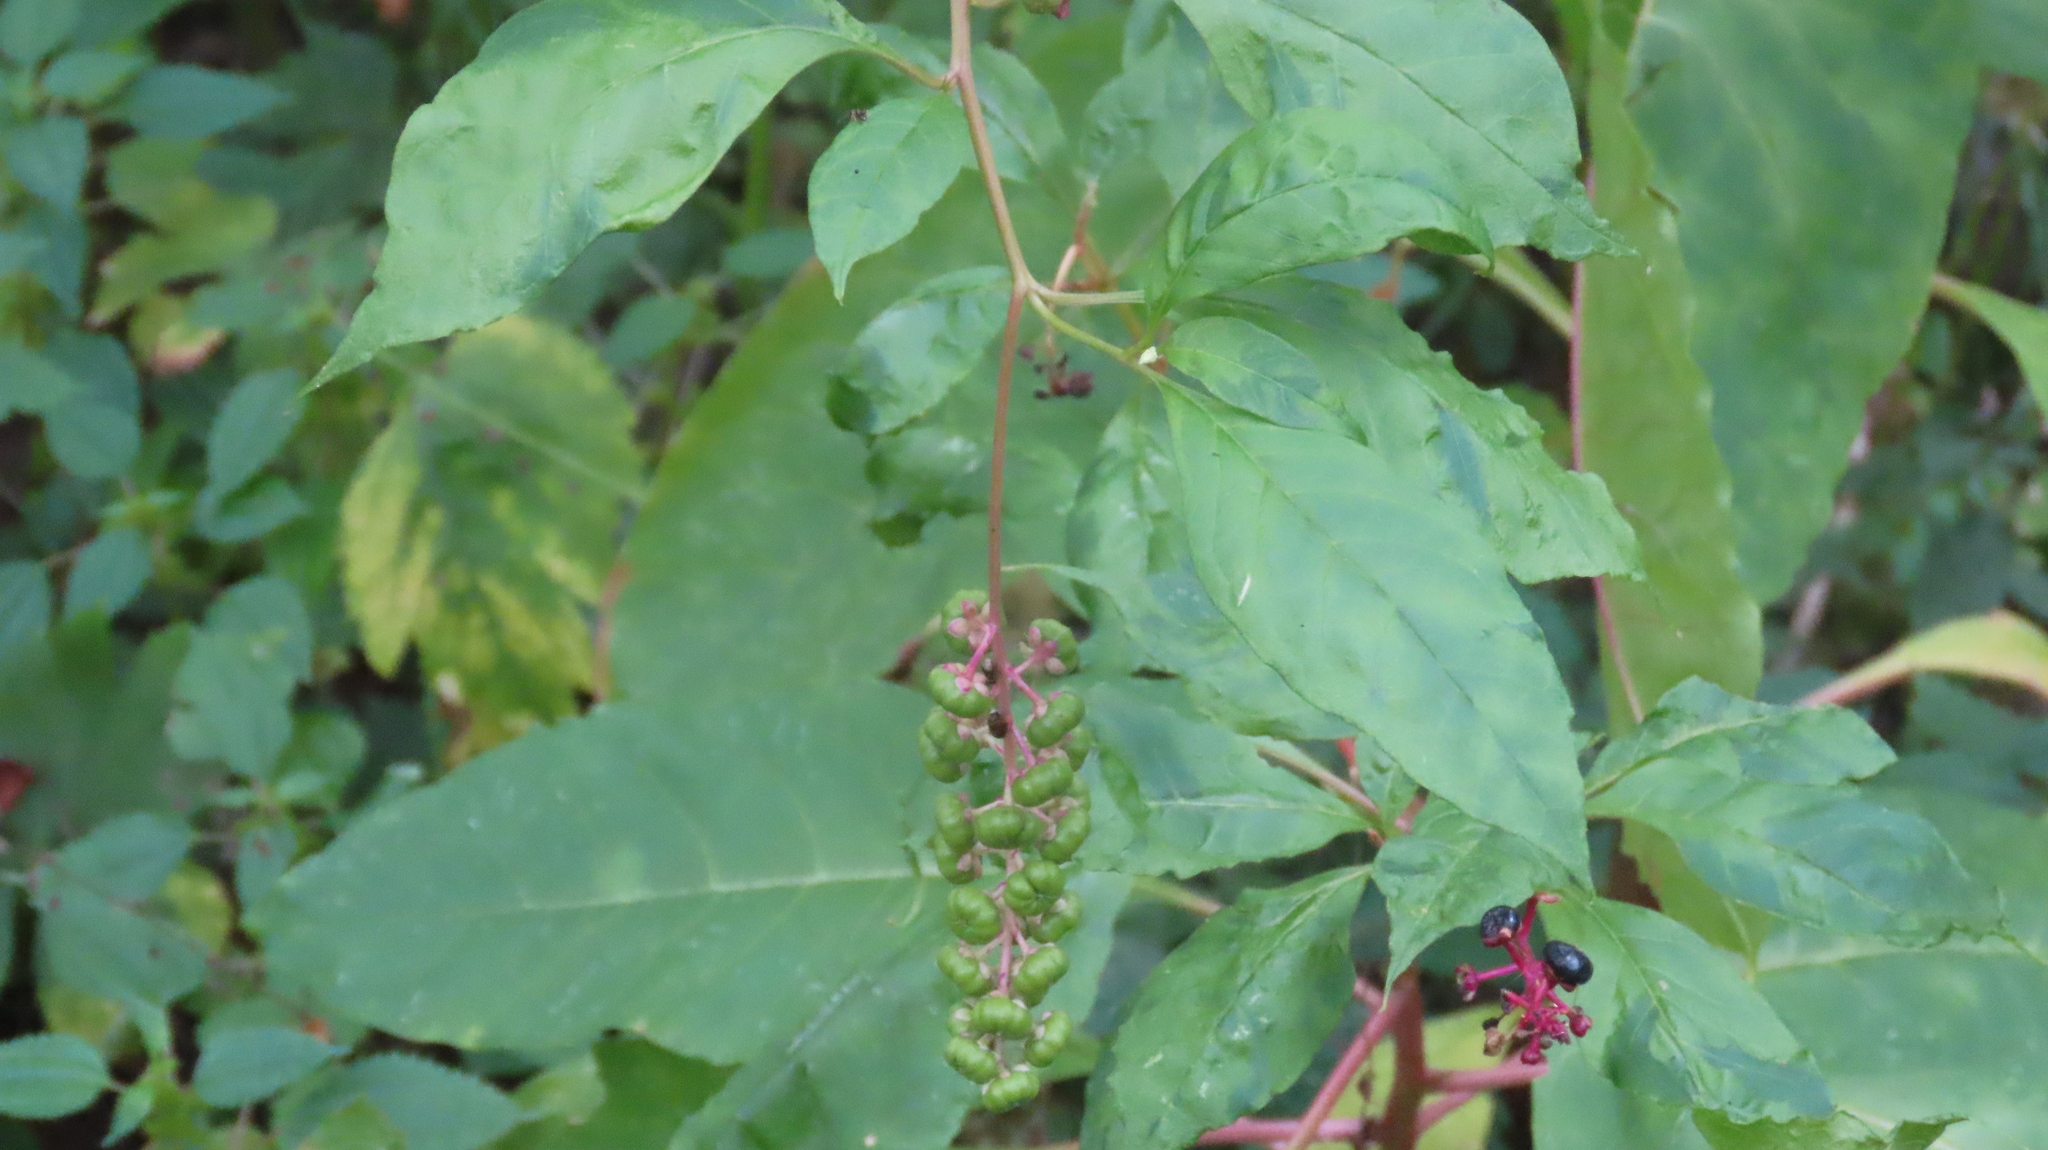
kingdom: Plantae
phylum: Tracheophyta
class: Magnoliopsida
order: Caryophyllales
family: Phytolaccaceae
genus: Phytolacca
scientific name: Phytolacca americana
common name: American pokeweed
